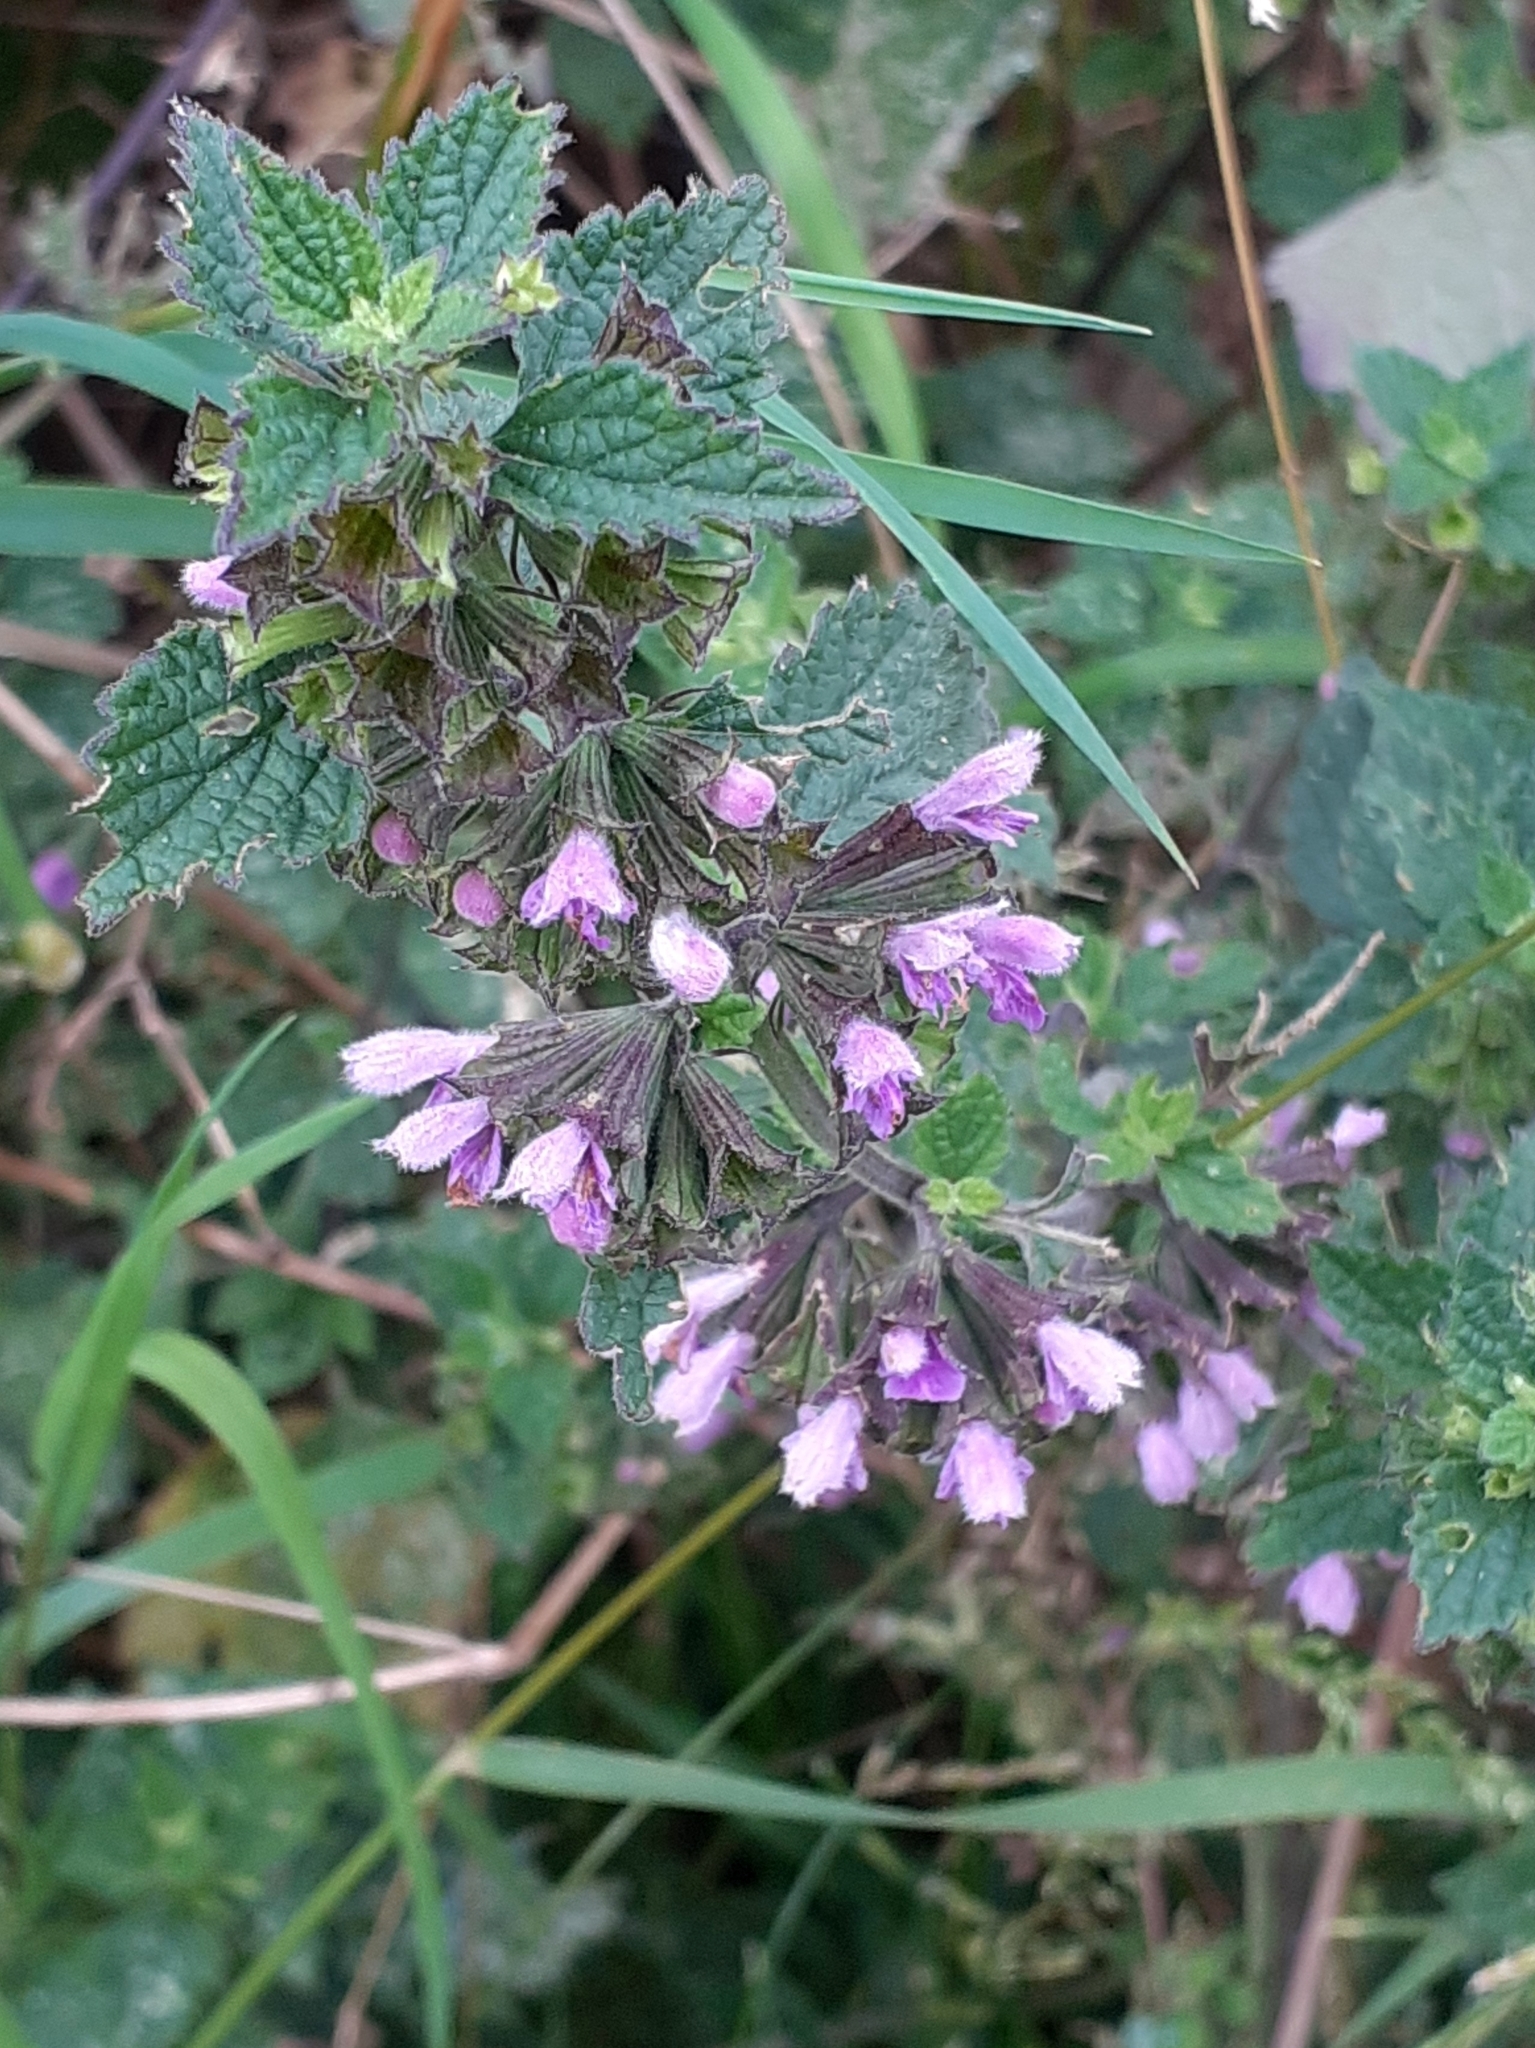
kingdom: Plantae
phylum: Tracheophyta
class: Magnoliopsida
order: Lamiales
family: Lamiaceae
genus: Ballota
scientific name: Ballota nigra
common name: Black horehound
